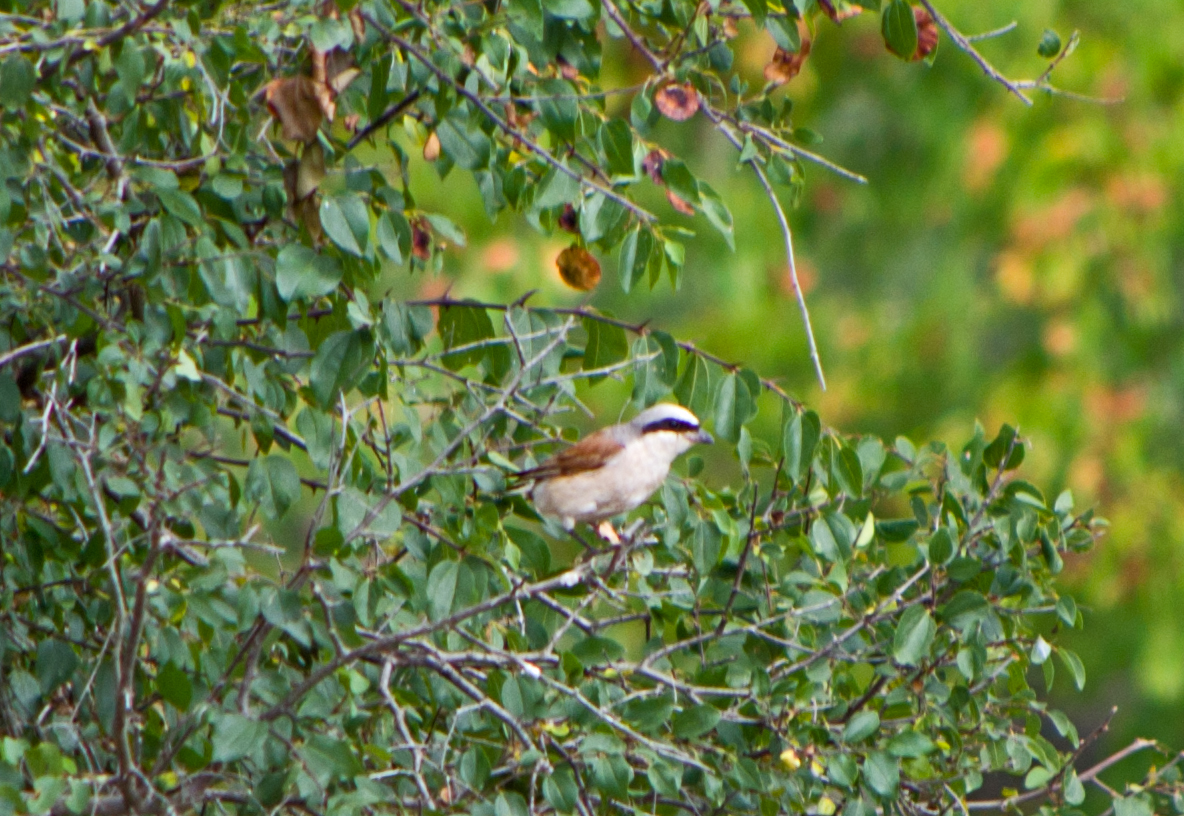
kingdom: Animalia
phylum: Chordata
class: Aves
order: Passeriformes
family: Laniidae
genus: Lanius
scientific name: Lanius collurio
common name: Red-backed shrike
